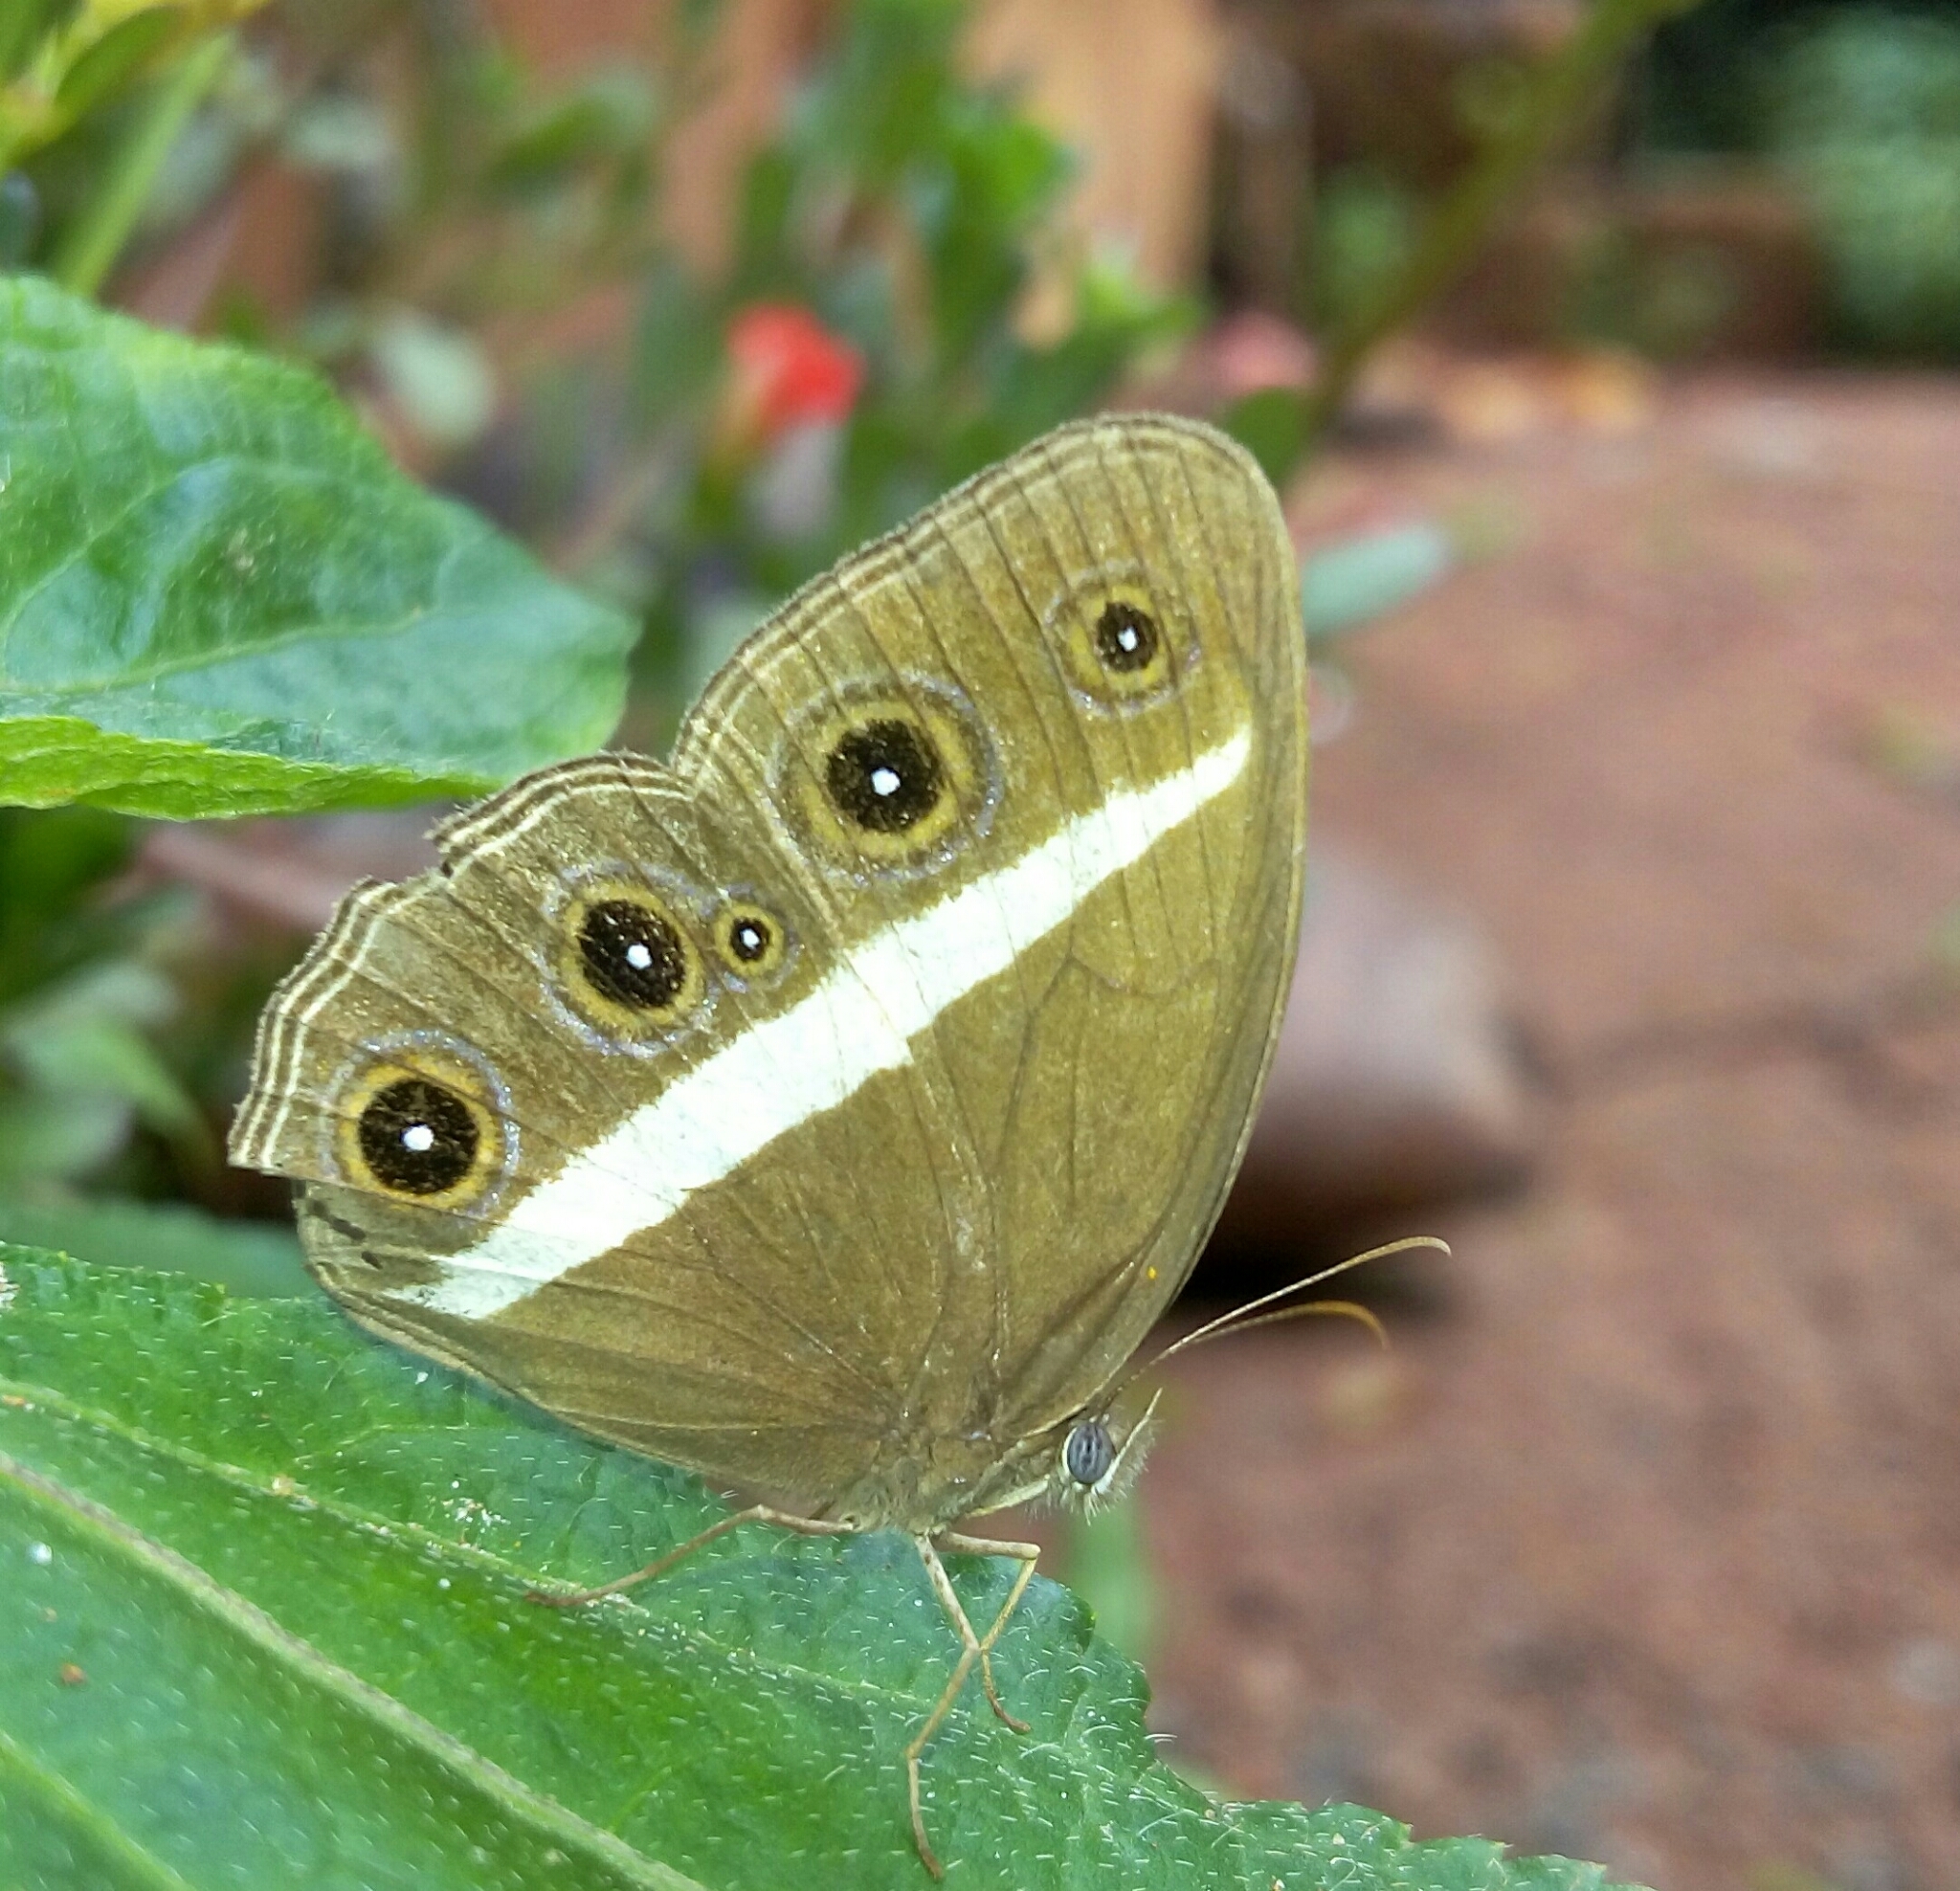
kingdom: Animalia
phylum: Arthropoda
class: Insecta
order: Lepidoptera
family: Nymphalidae
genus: Orsotriaena
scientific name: Orsotriaena medus
